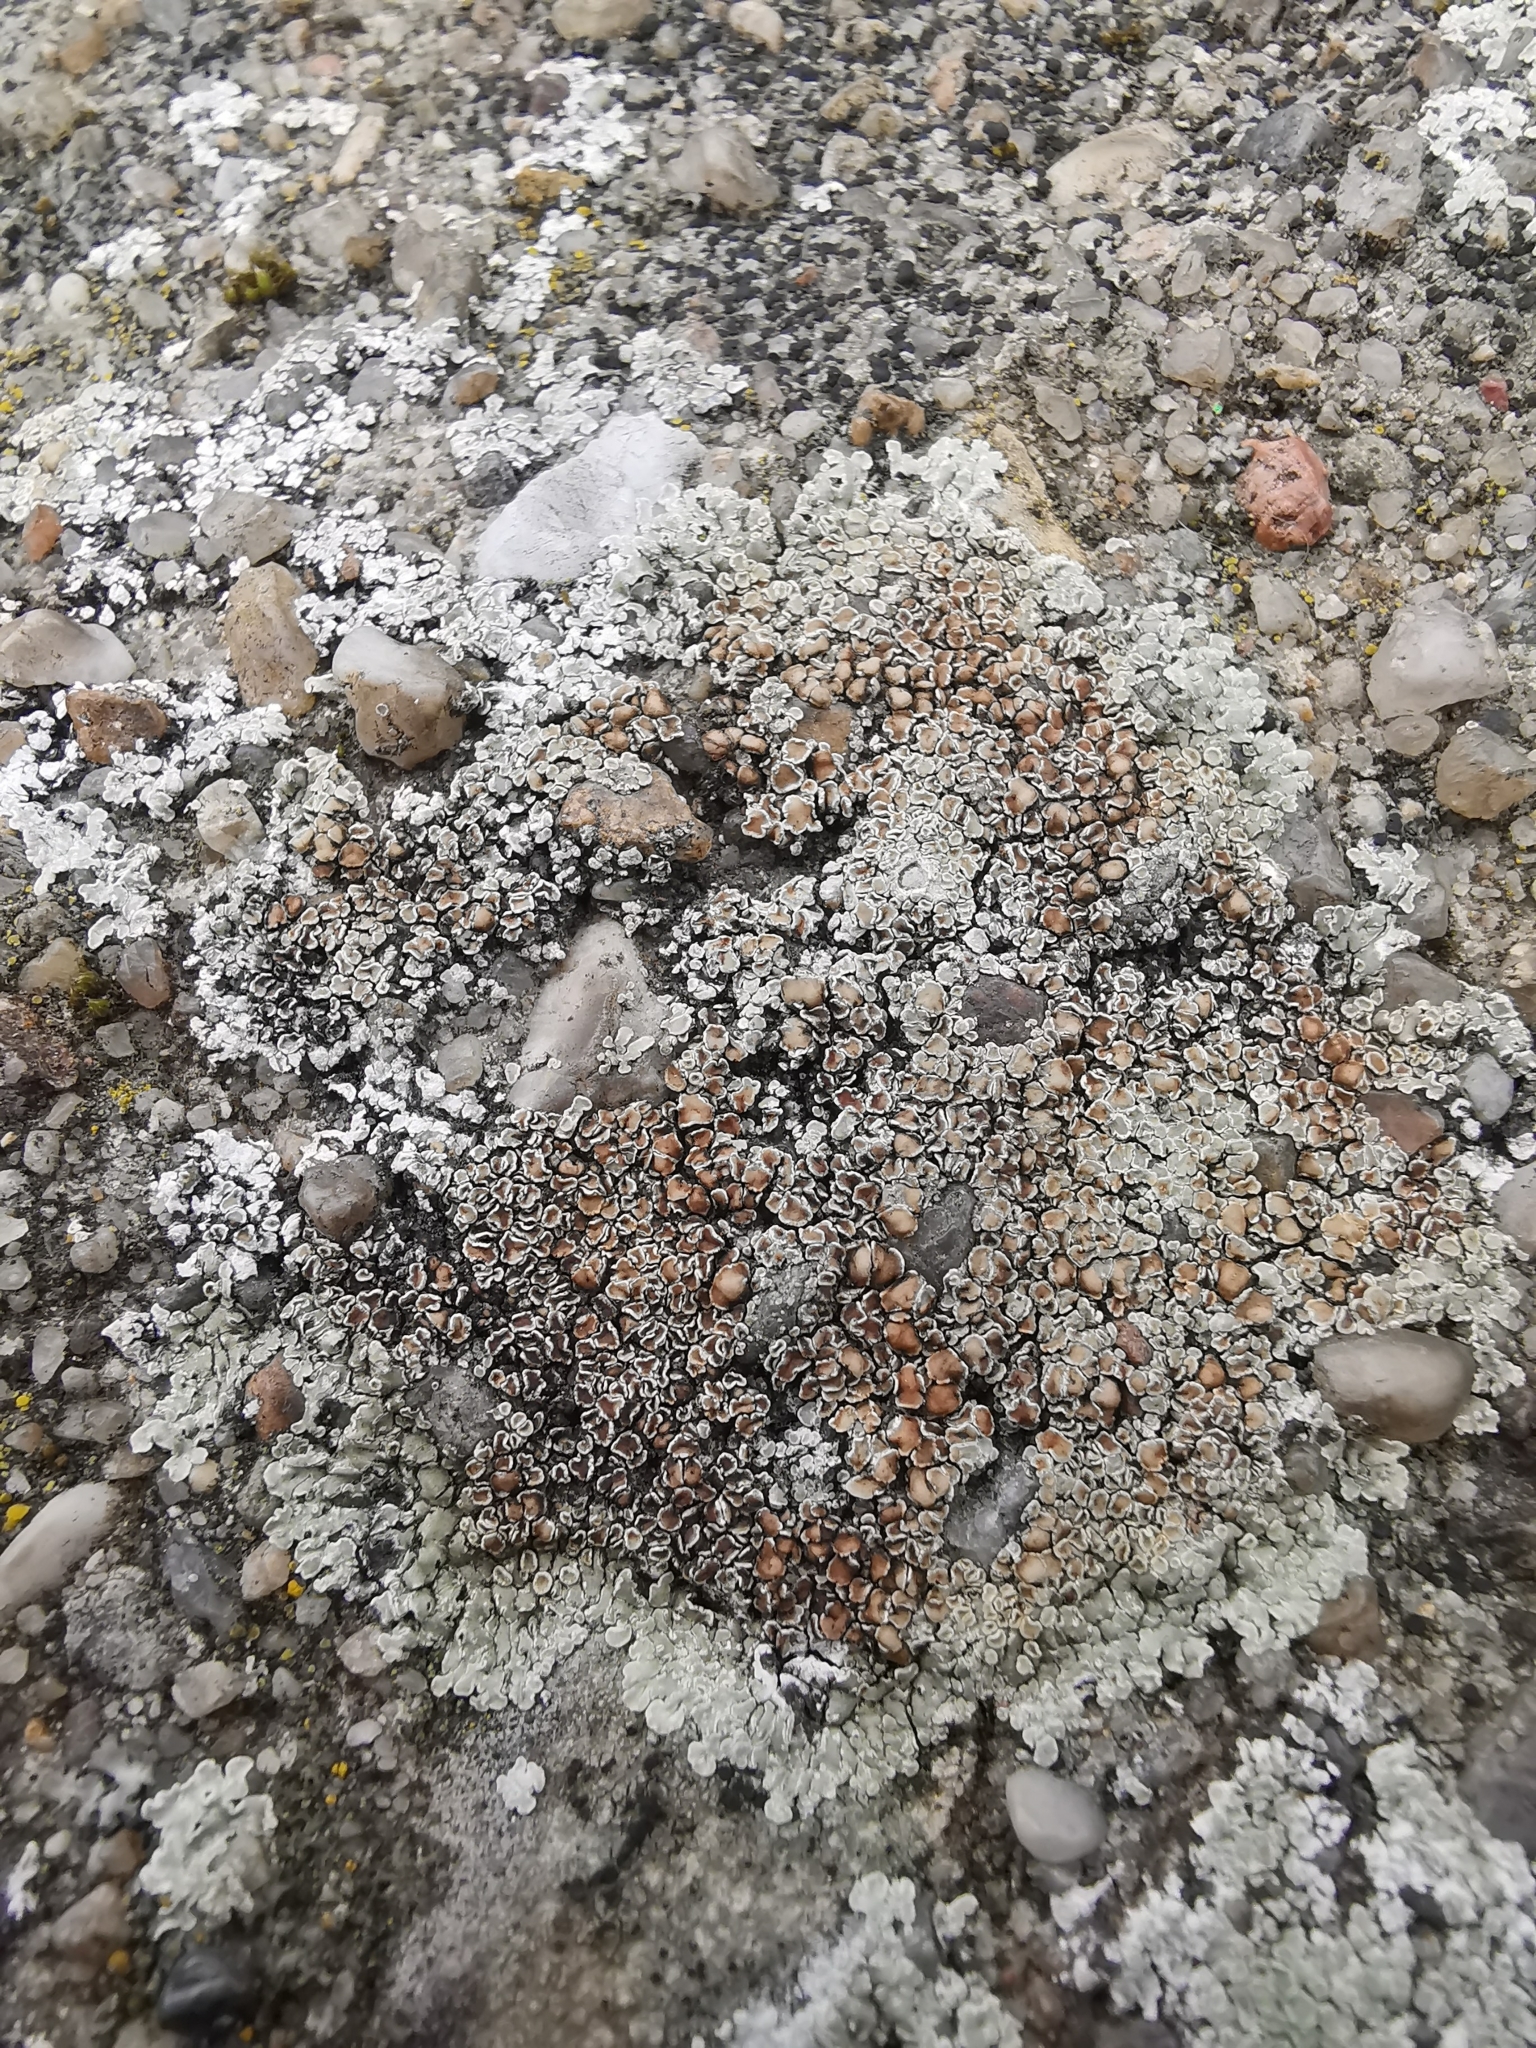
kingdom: Fungi
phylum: Ascomycota
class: Lecanoromycetes
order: Lecanorales
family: Lecanoraceae
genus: Protoparmeliopsis
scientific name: Protoparmeliopsis muralis
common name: Stonewall rim lichen
